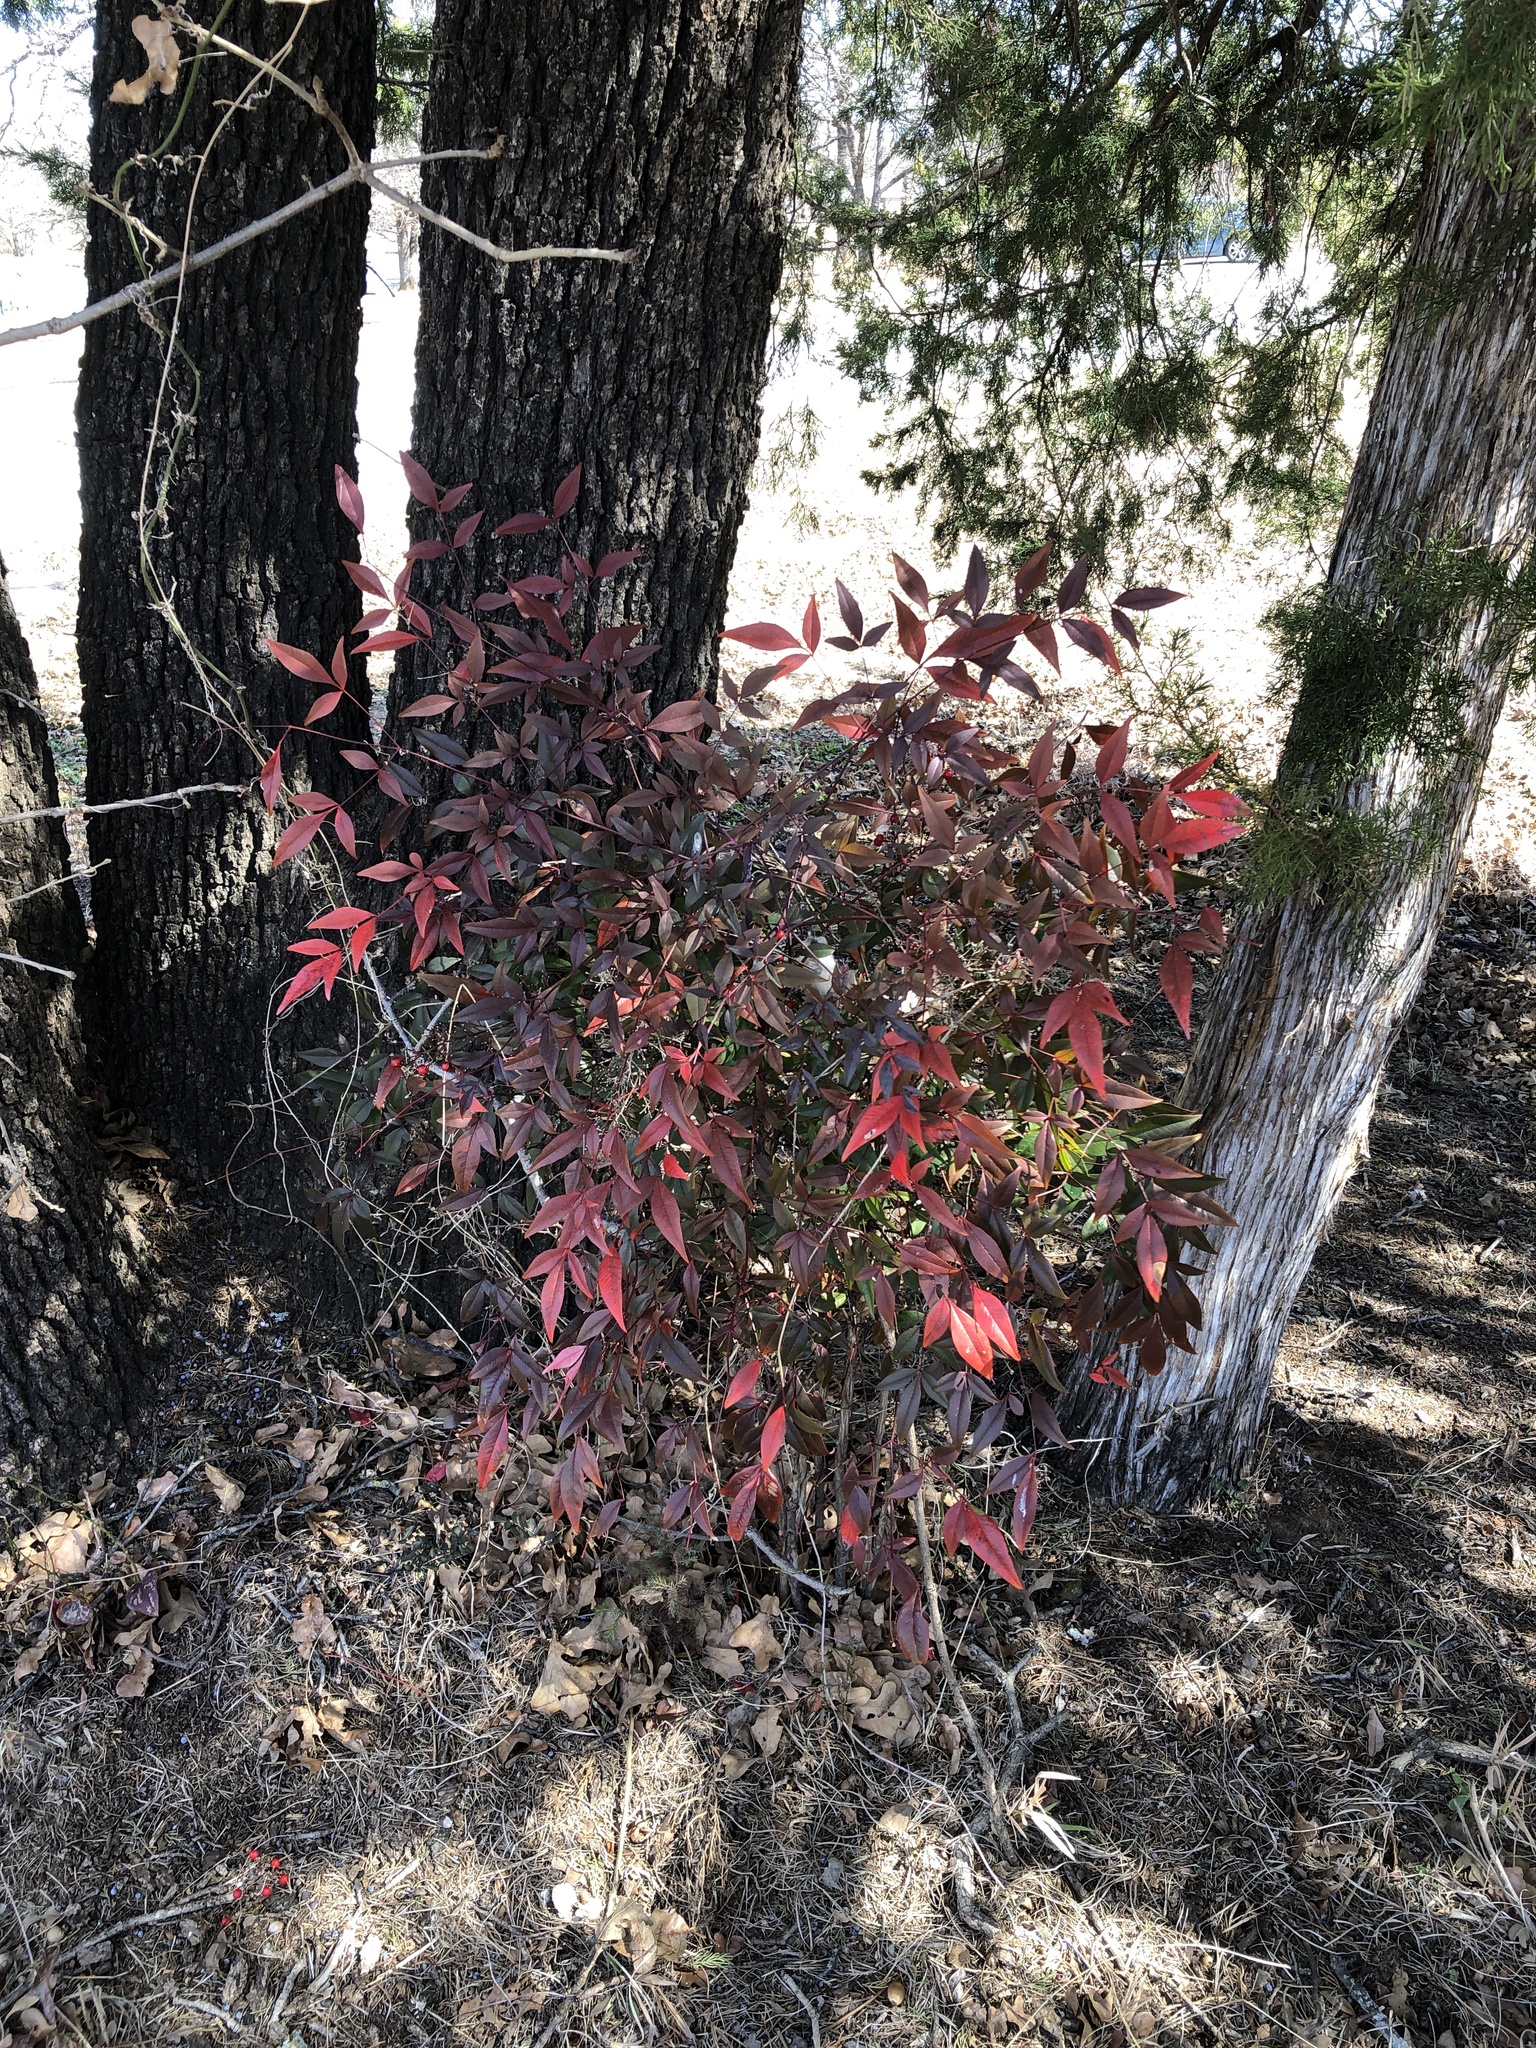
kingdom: Plantae
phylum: Tracheophyta
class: Magnoliopsida
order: Ranunculales
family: Berberidaceae
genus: Nandina
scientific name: Nandina domestica
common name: Sacred bamboo
